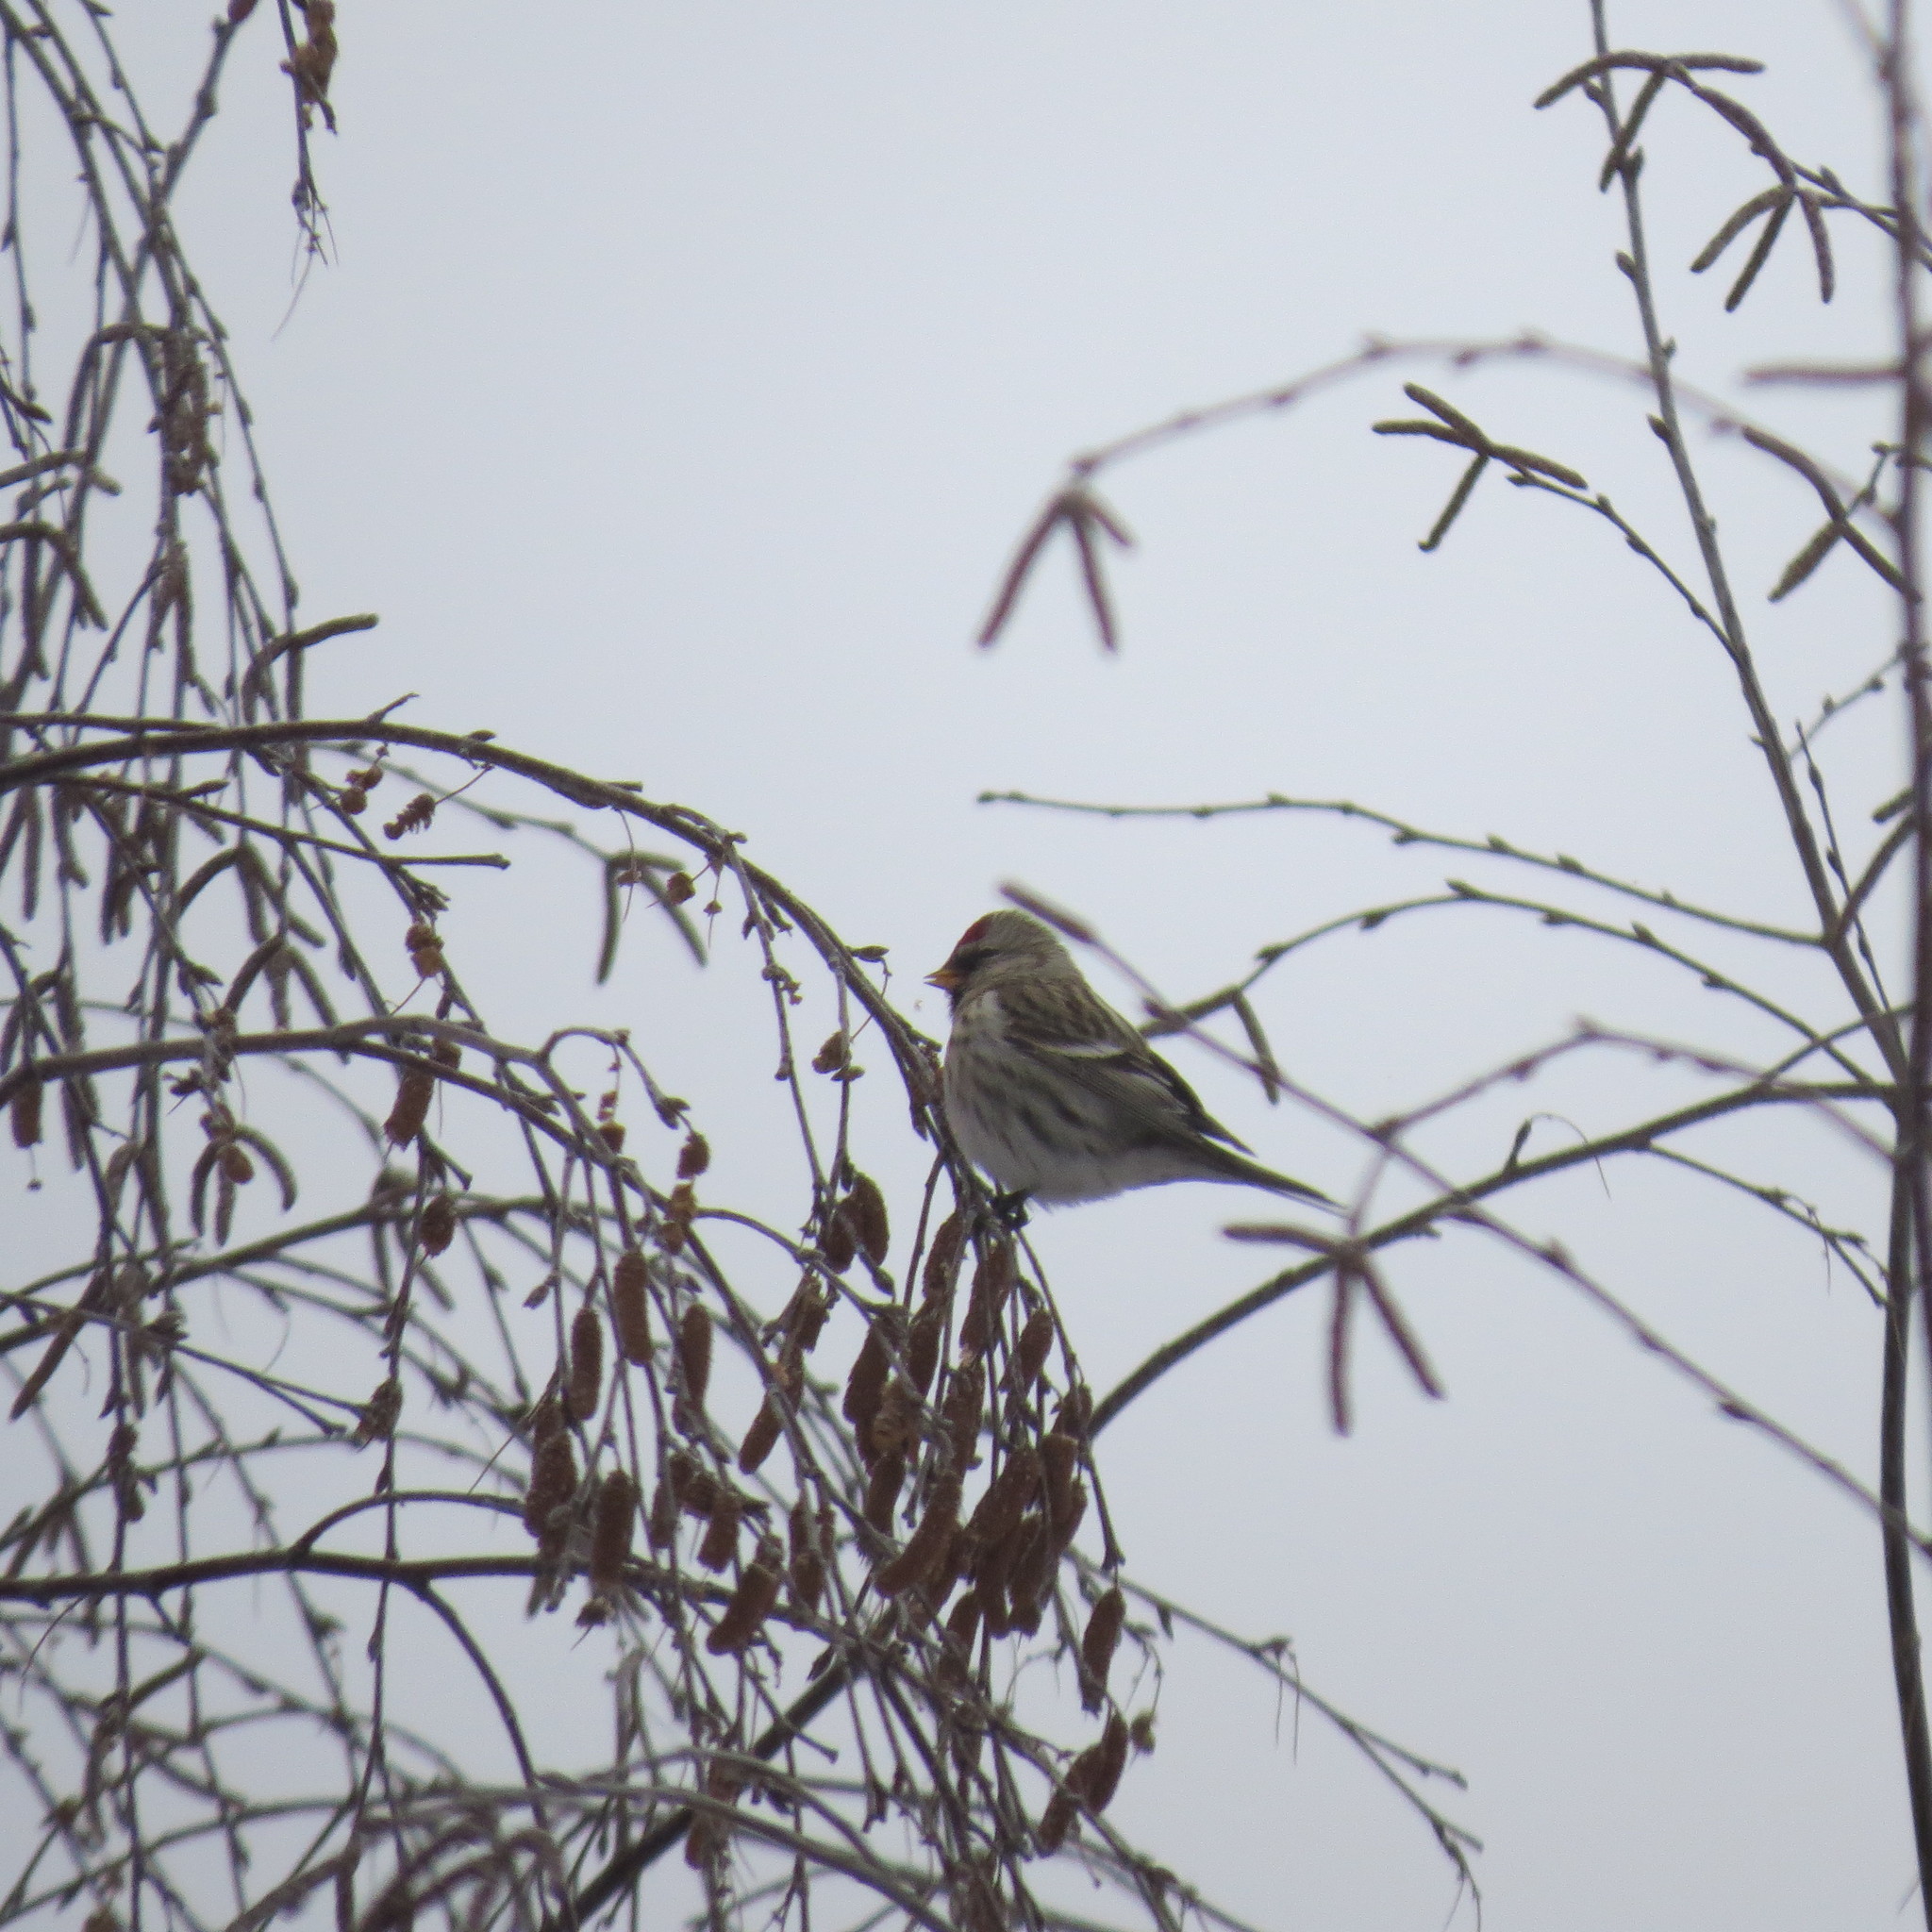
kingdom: Animalia
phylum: Chordata
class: Aves
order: Passeriformes
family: Fringillidae
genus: Acanthis
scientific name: Acanthis flammea
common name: Common redpoll
